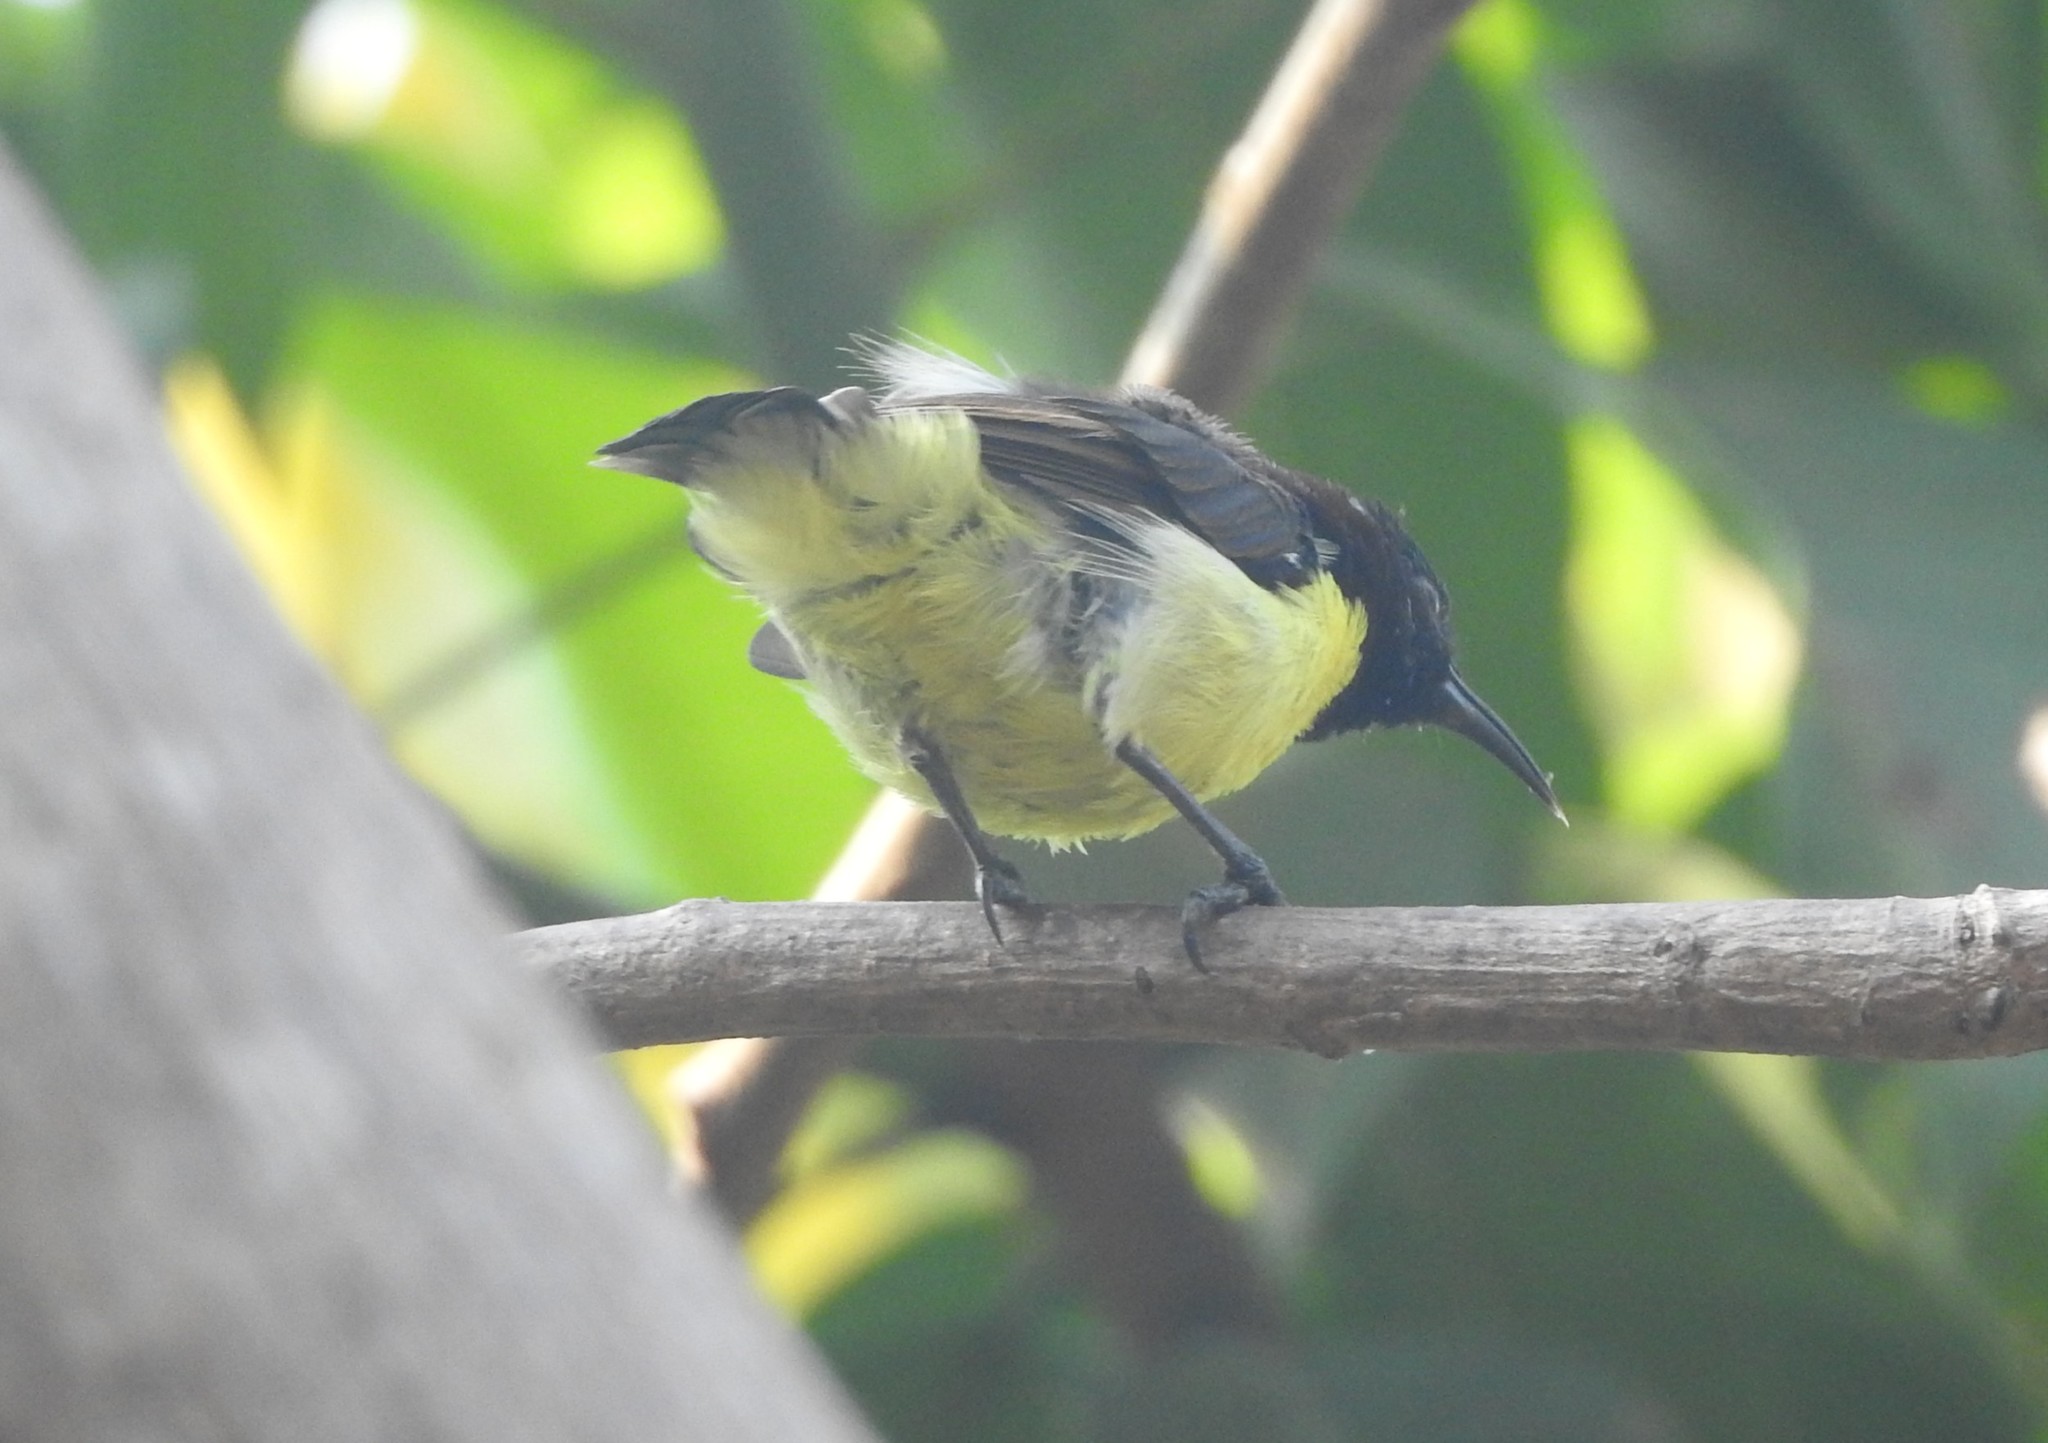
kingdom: Animalia
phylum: Chordata
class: Aves
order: Passeriformes
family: Nectariniidae
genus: Leptocoma
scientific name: Leptocoma zeylonica
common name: Purple-rumped sunbird
